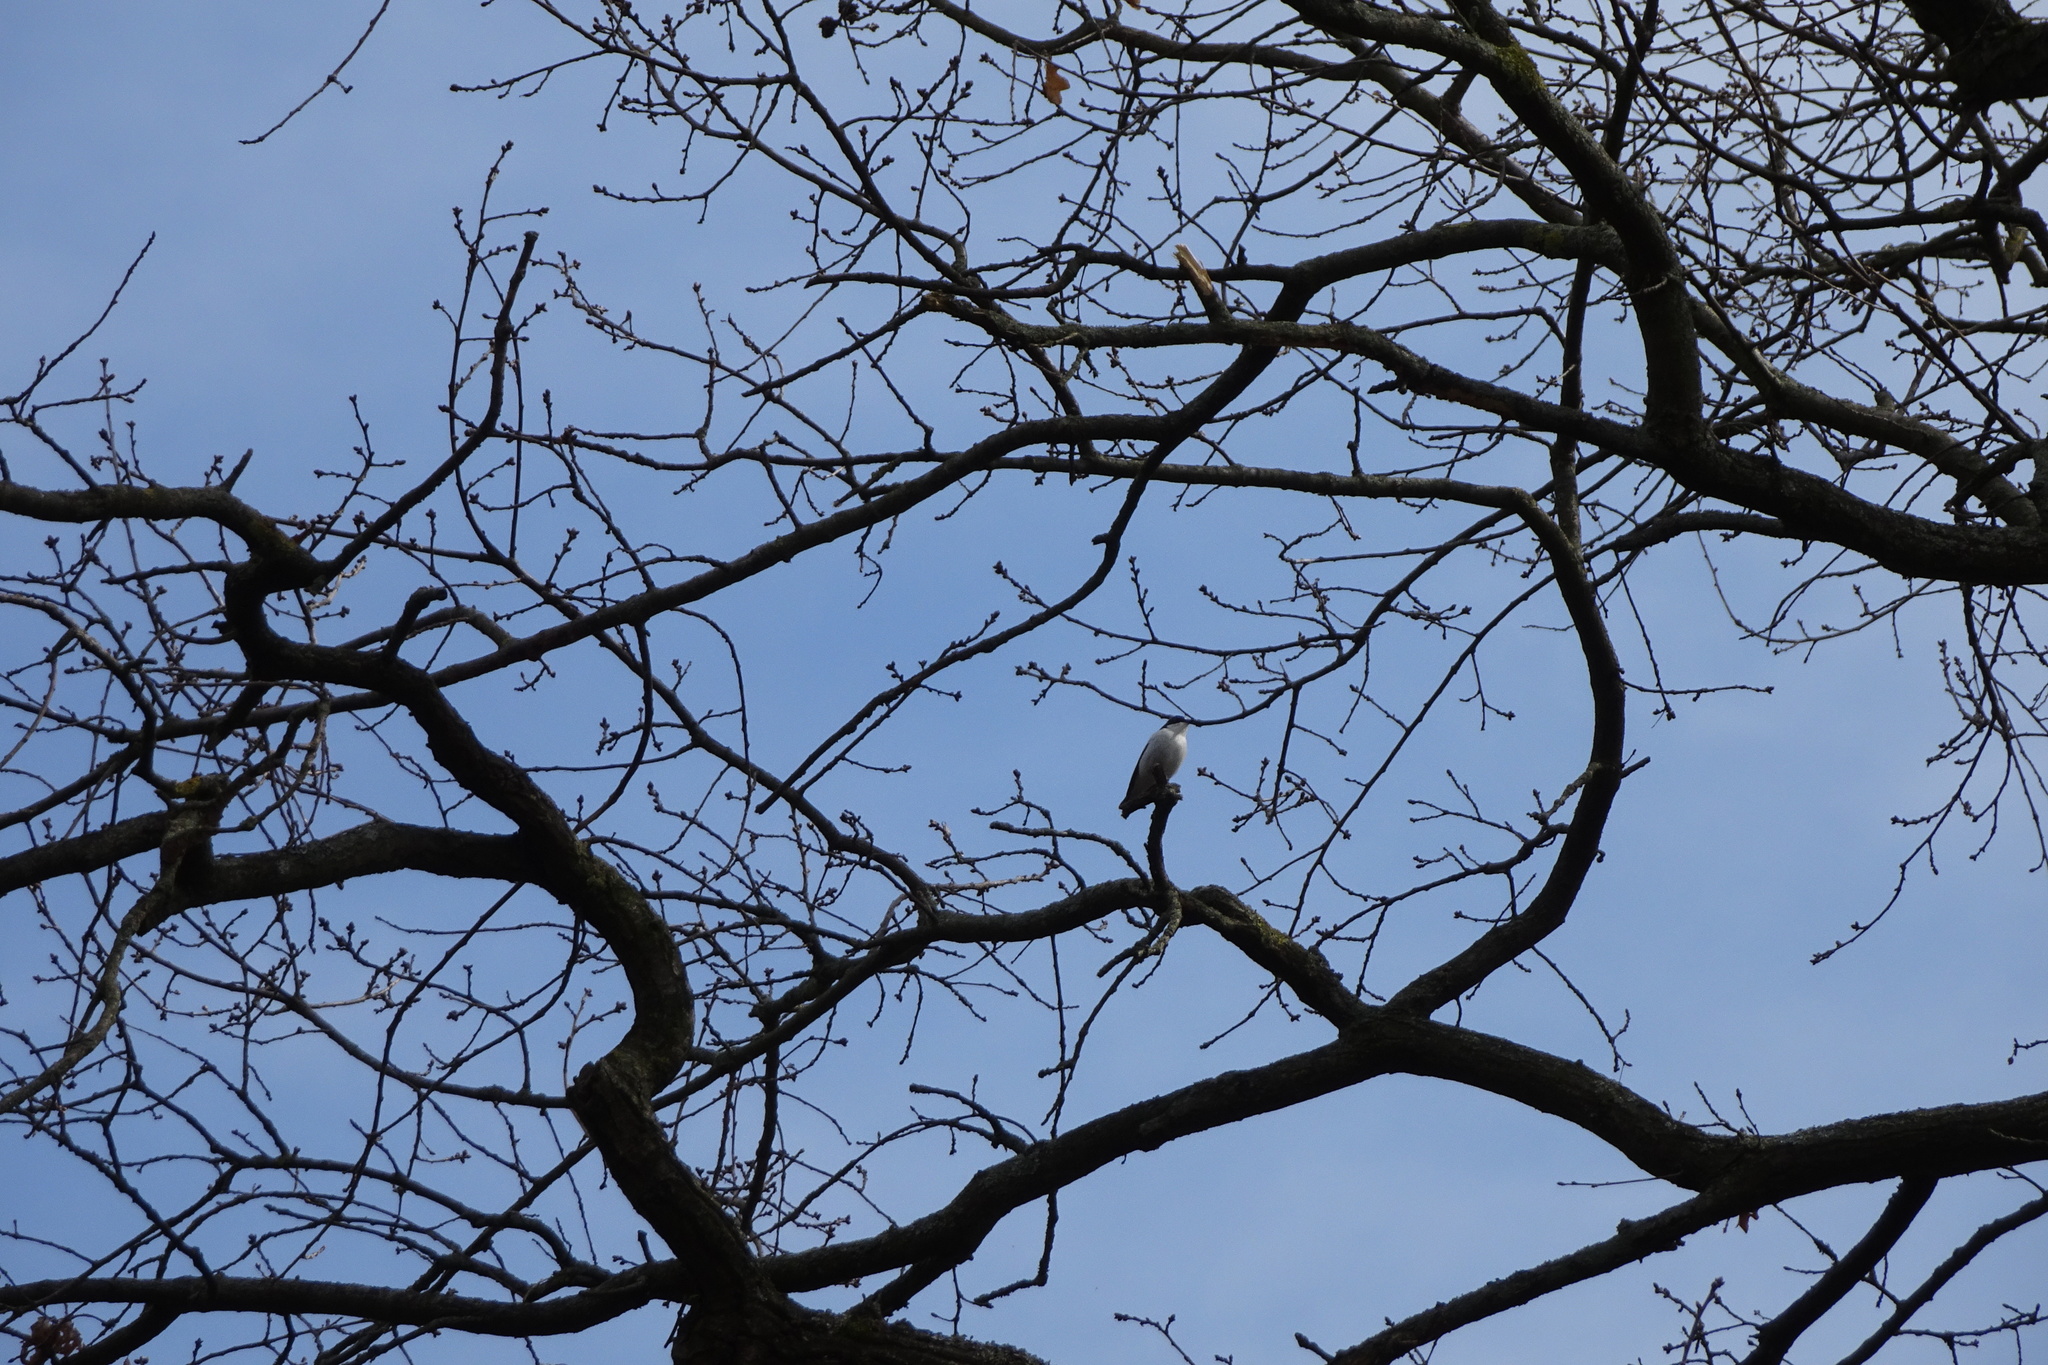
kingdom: Animalia
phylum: Chordata
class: Aves
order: Passeriformes
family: Muscicapidae
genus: Ficedula
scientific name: Ficedula hypoleuca
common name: European pied flycatcher
